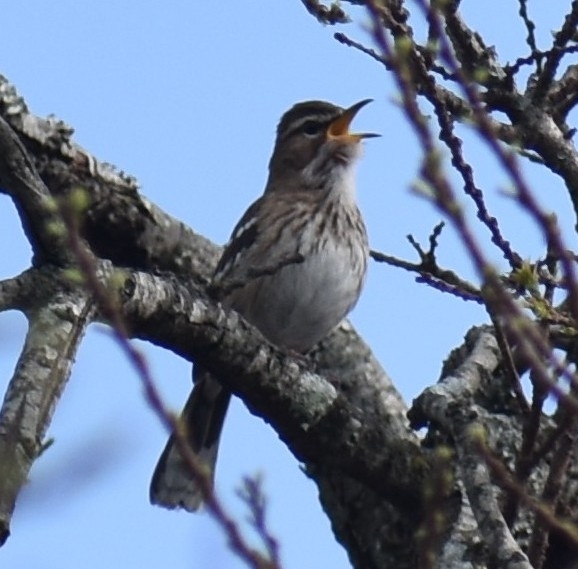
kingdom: Animalia
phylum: Chordata
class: Aves
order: Passeriformes
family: Muscicapidae
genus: Erythropygia
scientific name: Erythropygia leucophrys
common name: White-browed scrub robin
